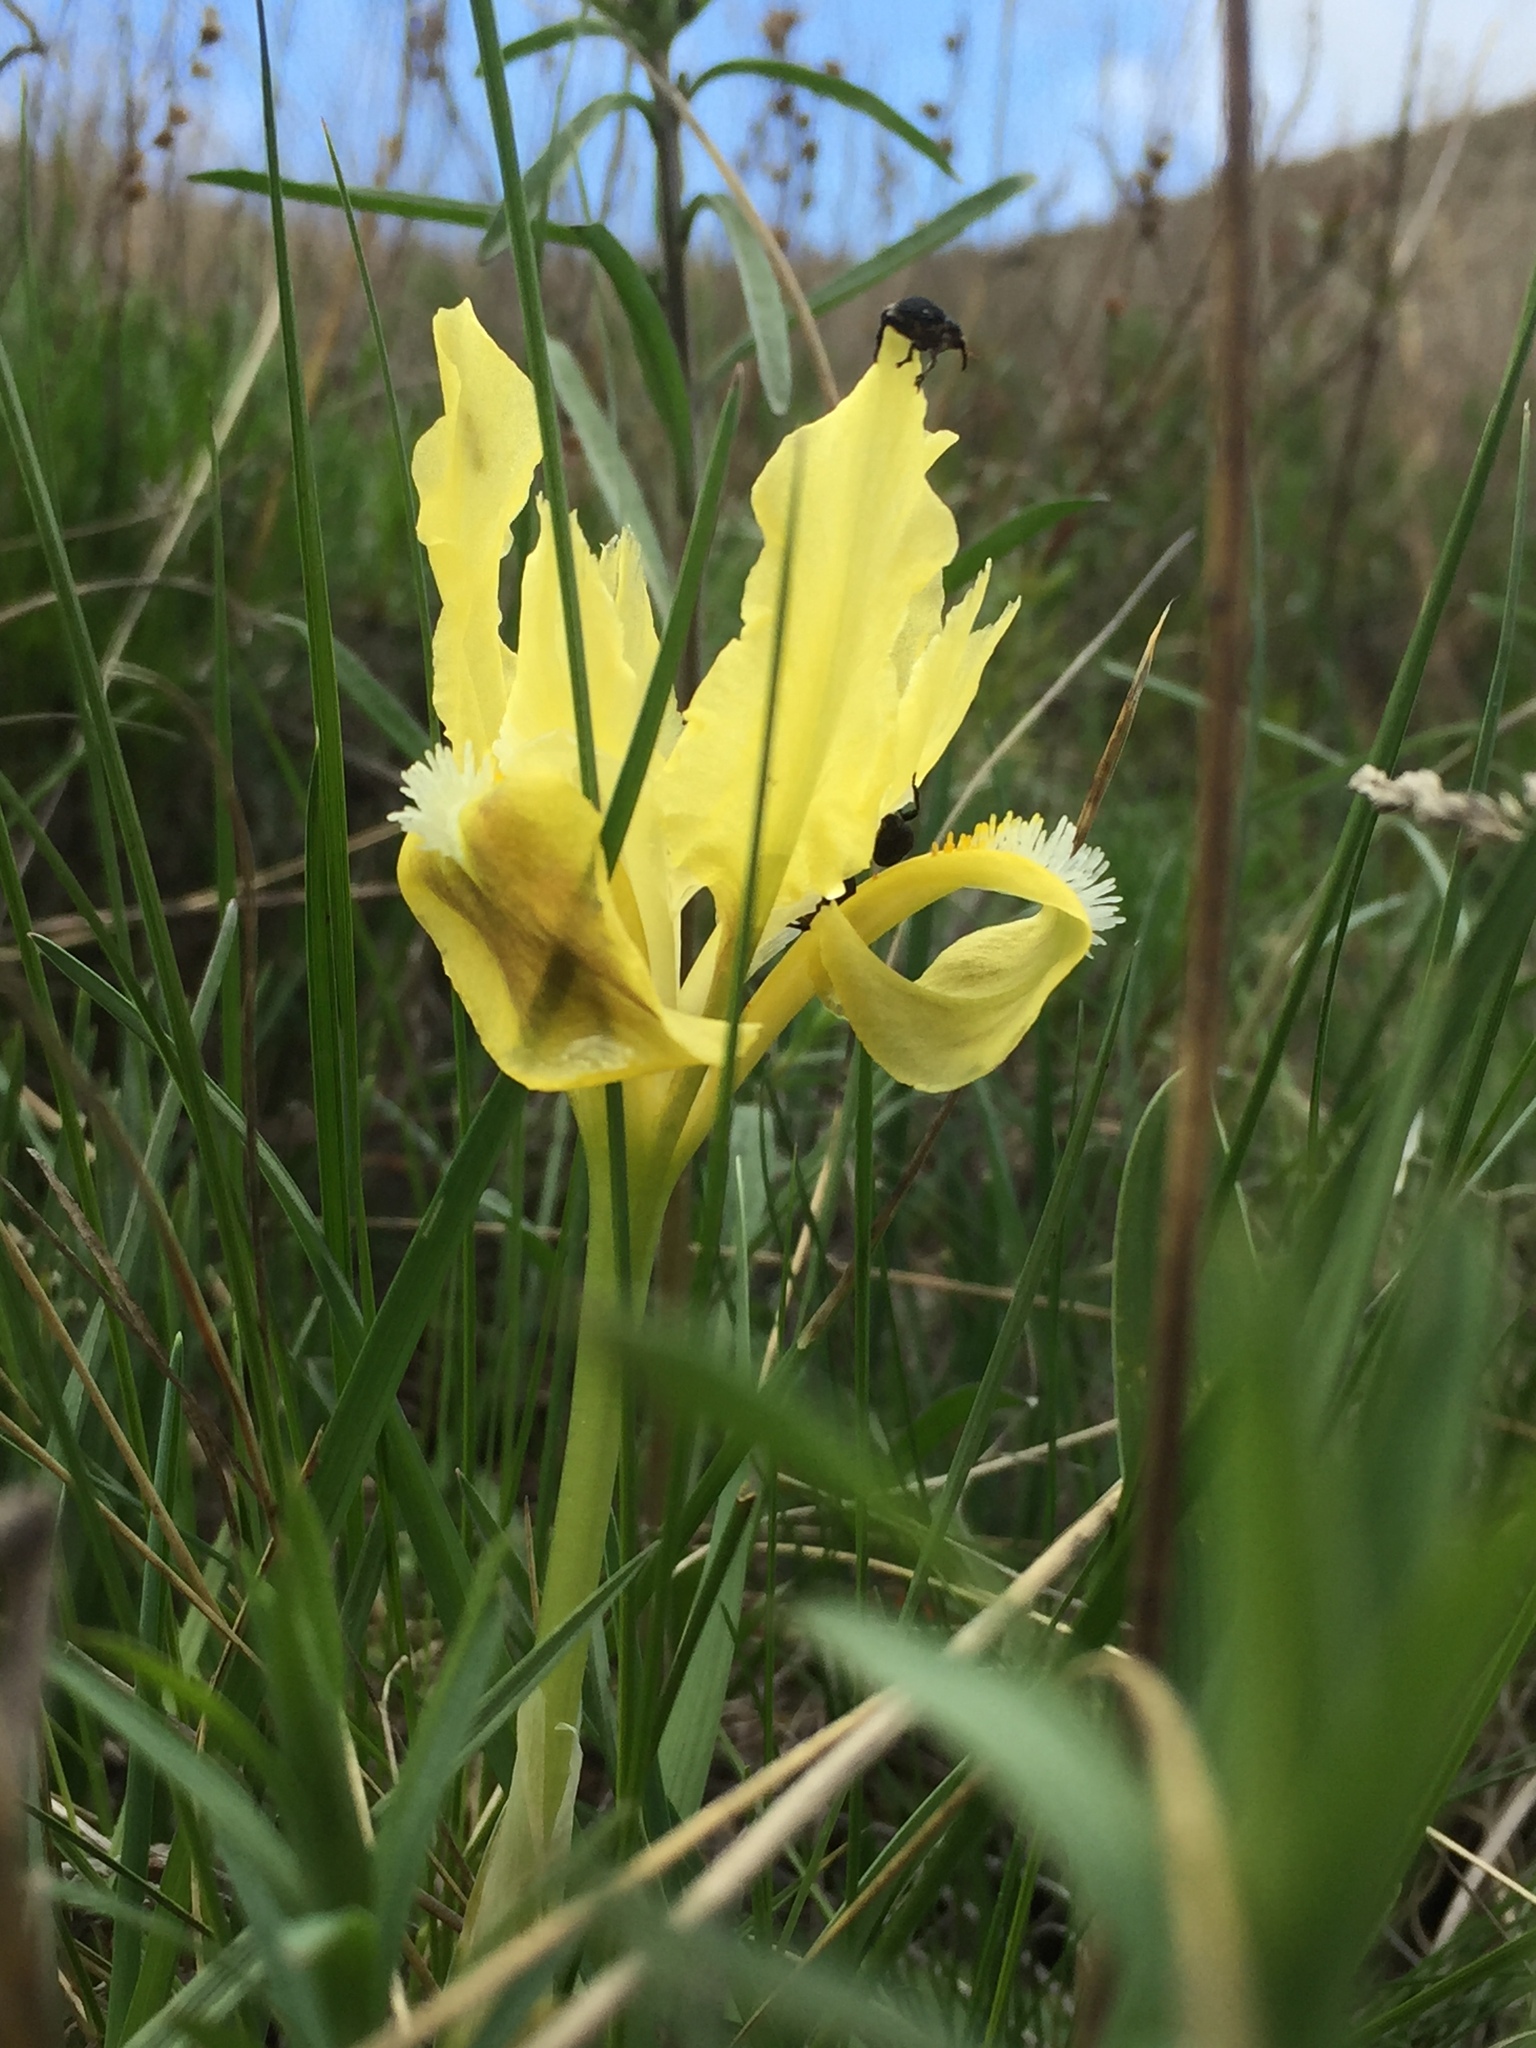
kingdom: Plantae
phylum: Tracheophyta
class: Liliopsida
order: Asparagales
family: Iridaceae
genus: Iris
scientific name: Iris pumila
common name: Dwarf iris
